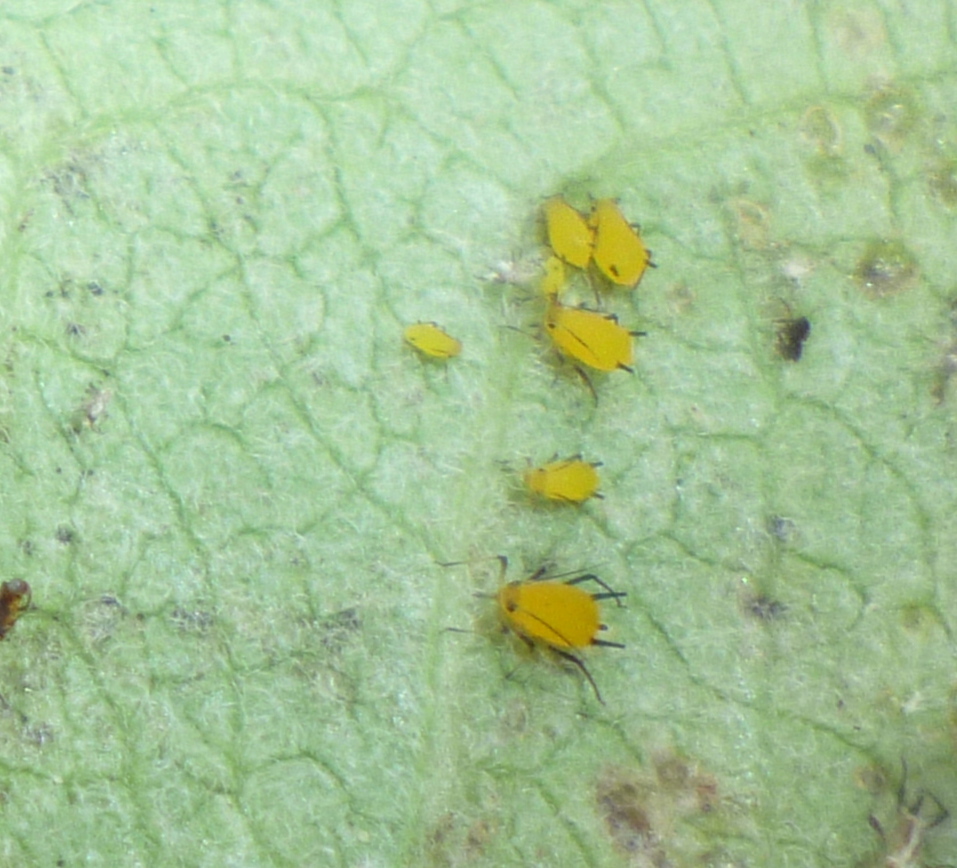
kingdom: Animalia
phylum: Arthropoda
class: Insecta
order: Hemiptera
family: Aphididae
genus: Aphis
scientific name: Aphis nerii
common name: Oleander aphid
